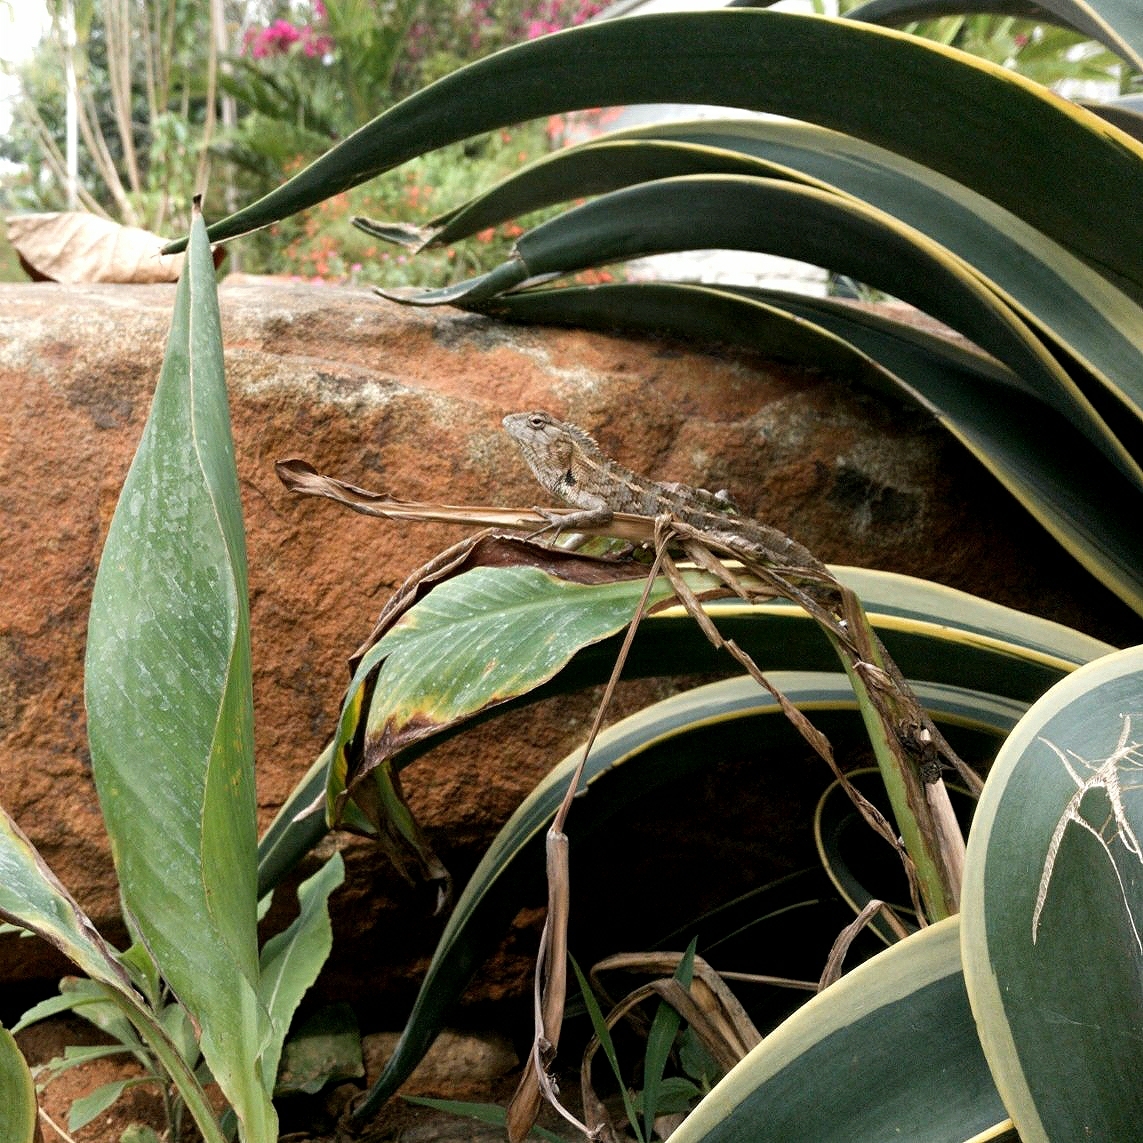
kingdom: Animalia
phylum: Chordata
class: Squamata
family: Agamidae
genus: Calotes
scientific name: Calotes versicolor
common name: Oriental garden lizard
